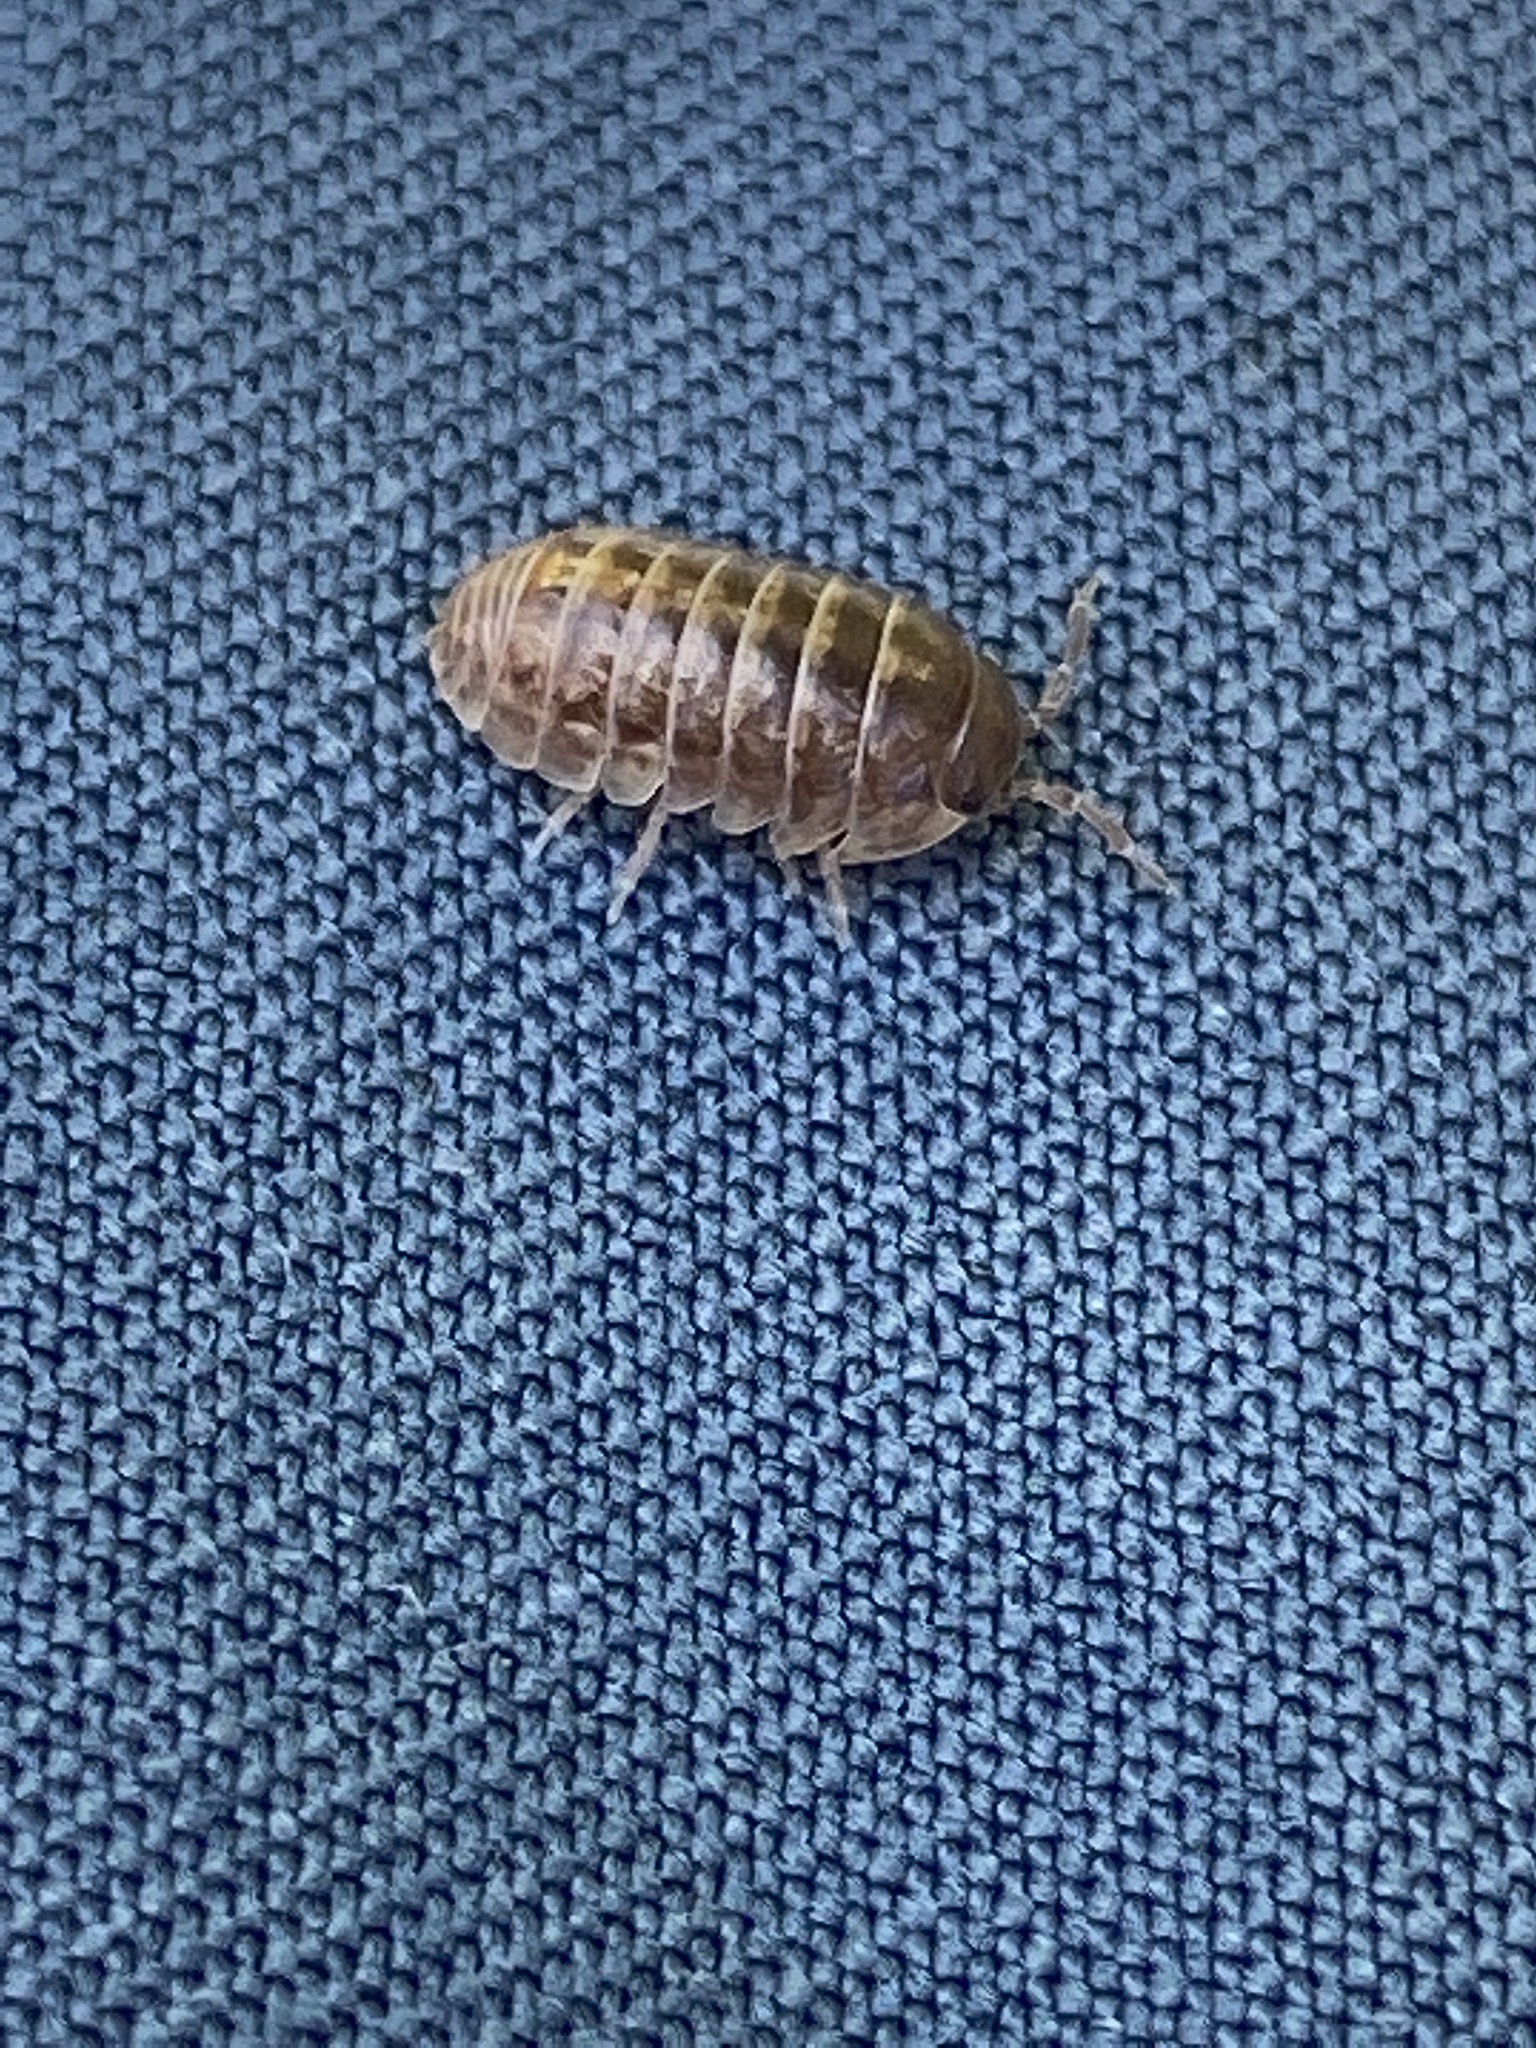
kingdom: Animalia
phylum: Arthropoda
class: Malacostraca
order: Isopoda
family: Armadillidiidae
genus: Armadillidium
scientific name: Armadillidium vulgare
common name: Common pill woodlouse
